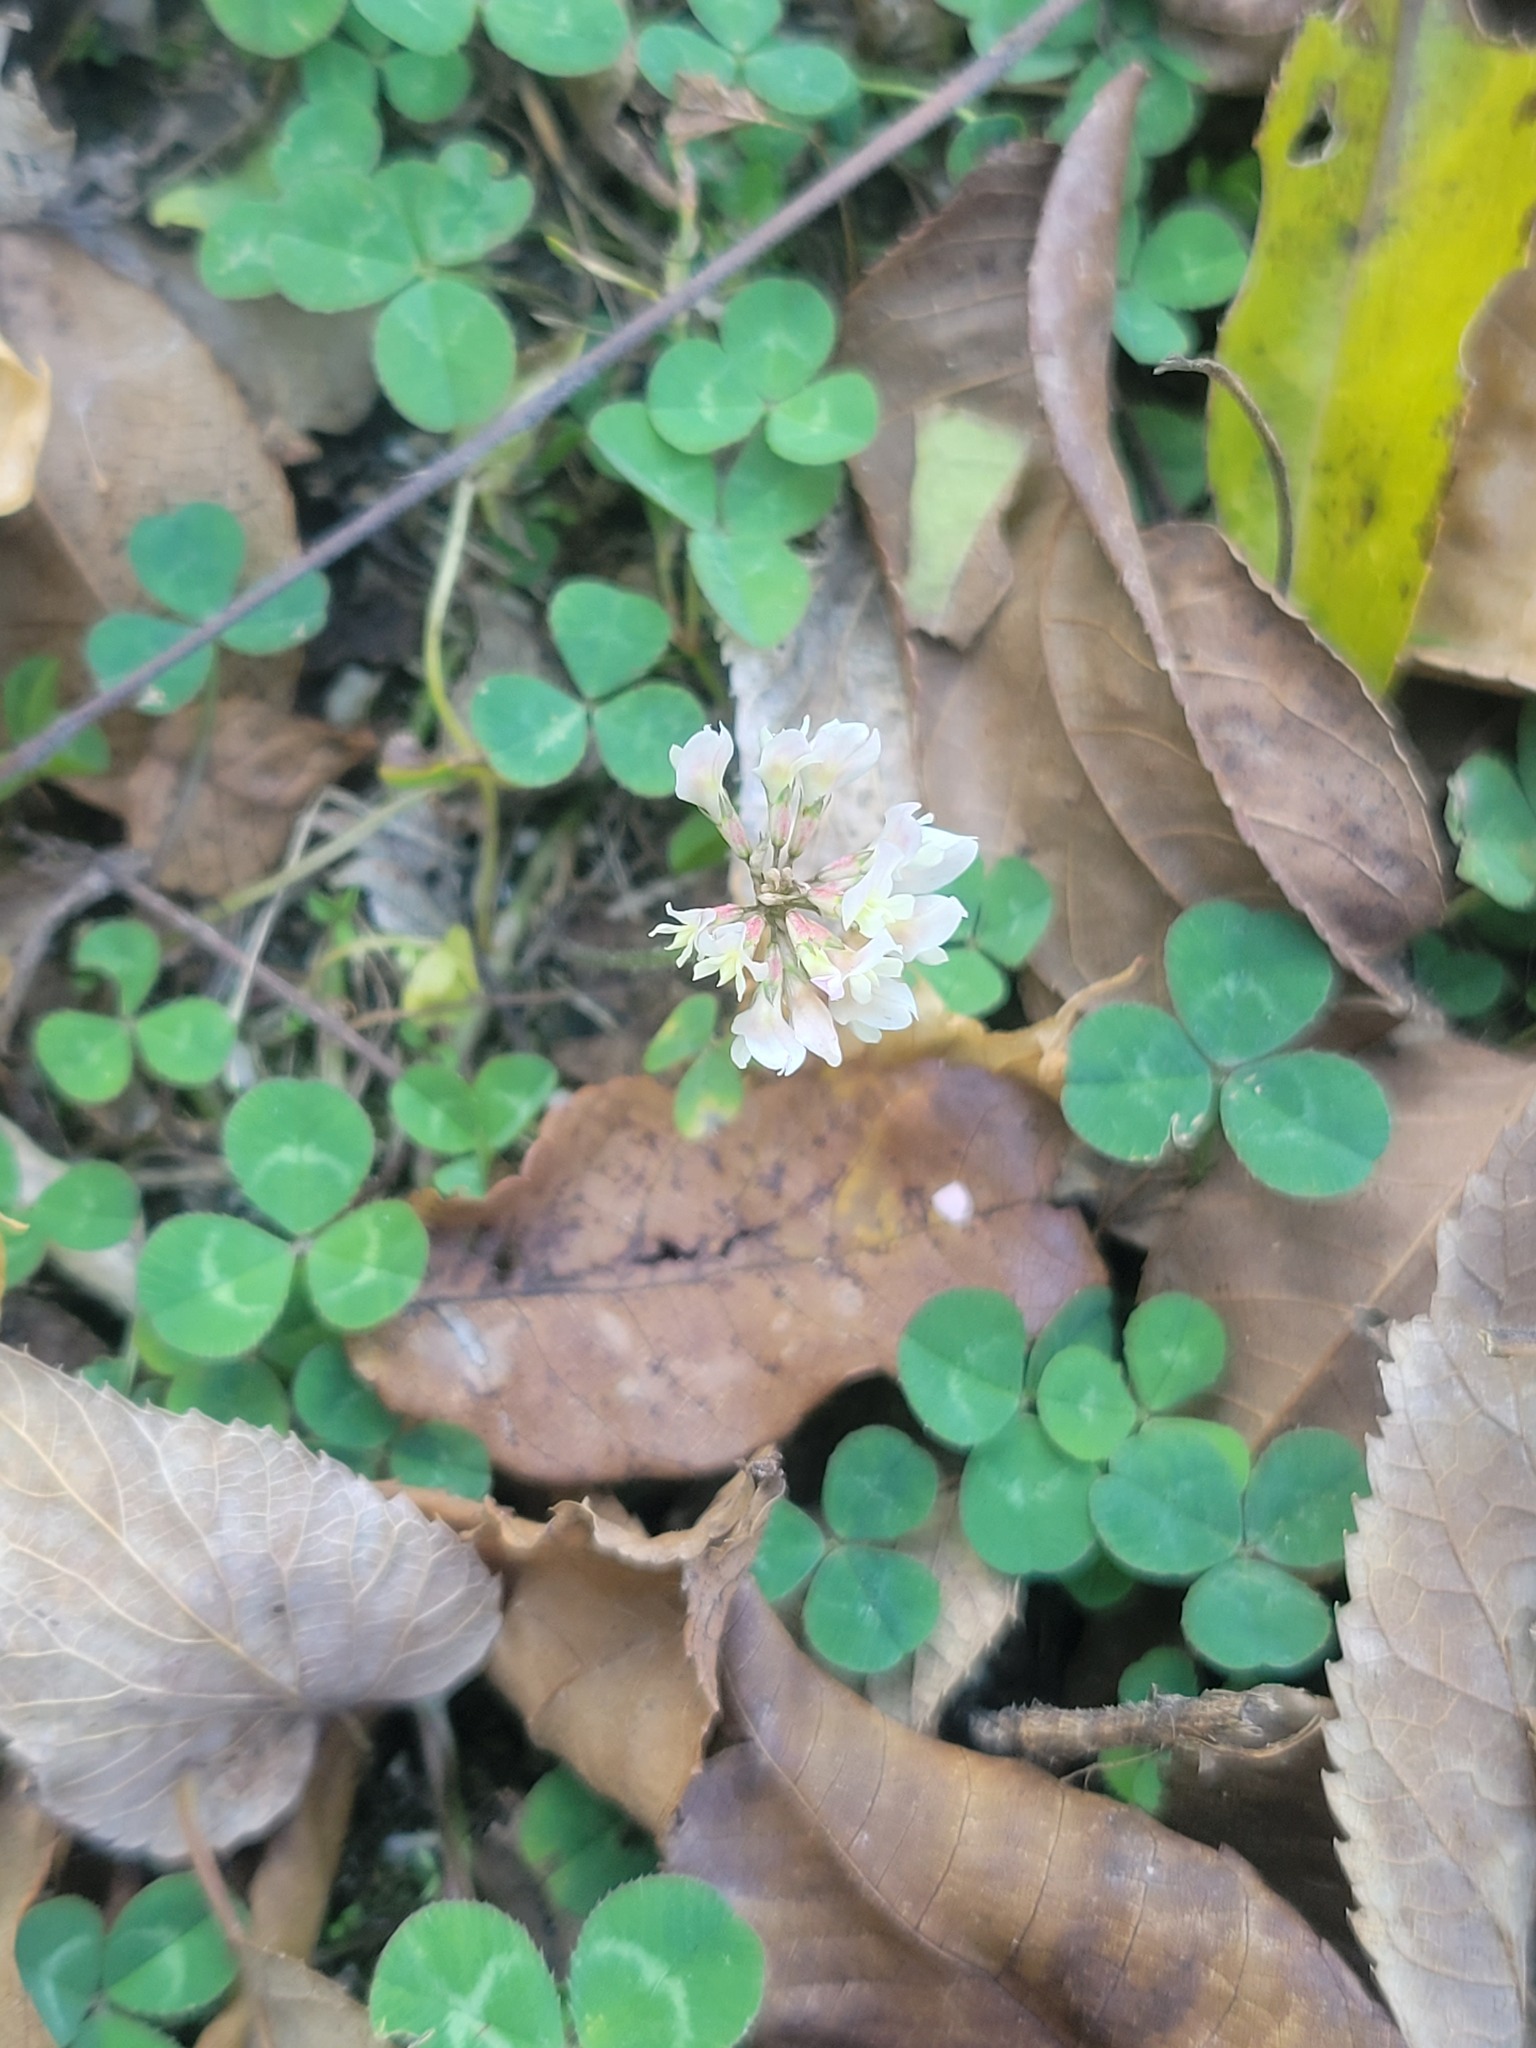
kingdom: Plantae
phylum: Tracheophyta
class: Magnoliopsida
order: Fabales
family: Fabaceae
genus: Trifolium
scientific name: Trifolium repens
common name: White clover
